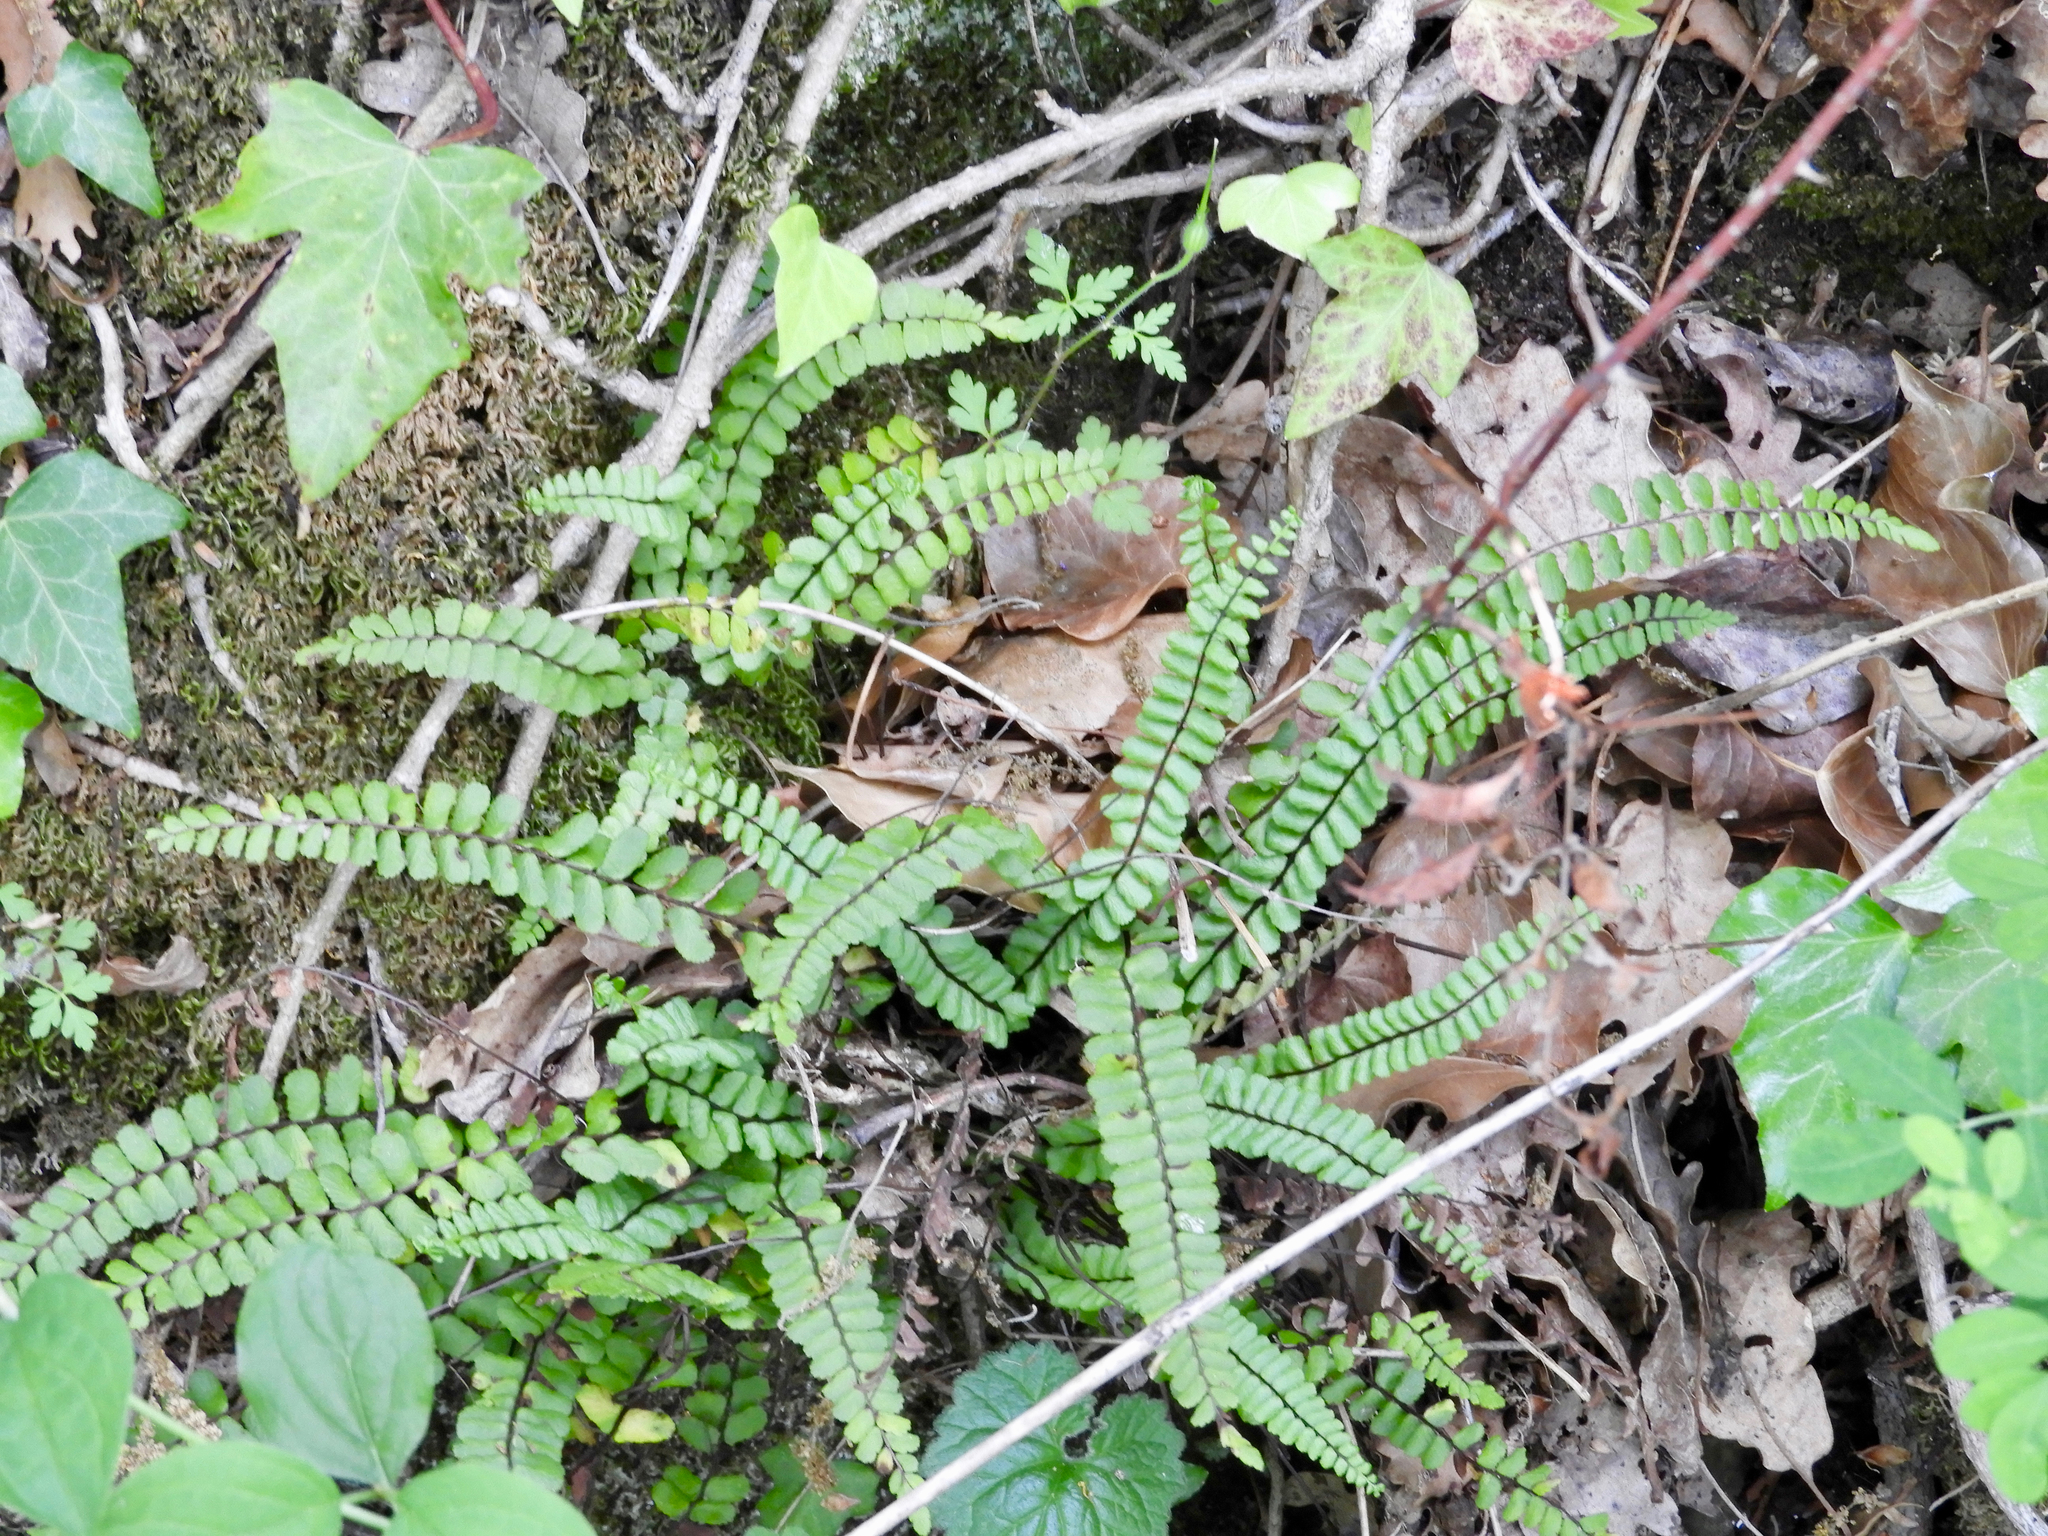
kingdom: Plantae
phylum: Tracheophyta
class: Polypodiopsida
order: Polypodiales
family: Aspleniaceae
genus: Asplenium
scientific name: Asplenium trichomanes
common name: Maidenhair spleenwort
